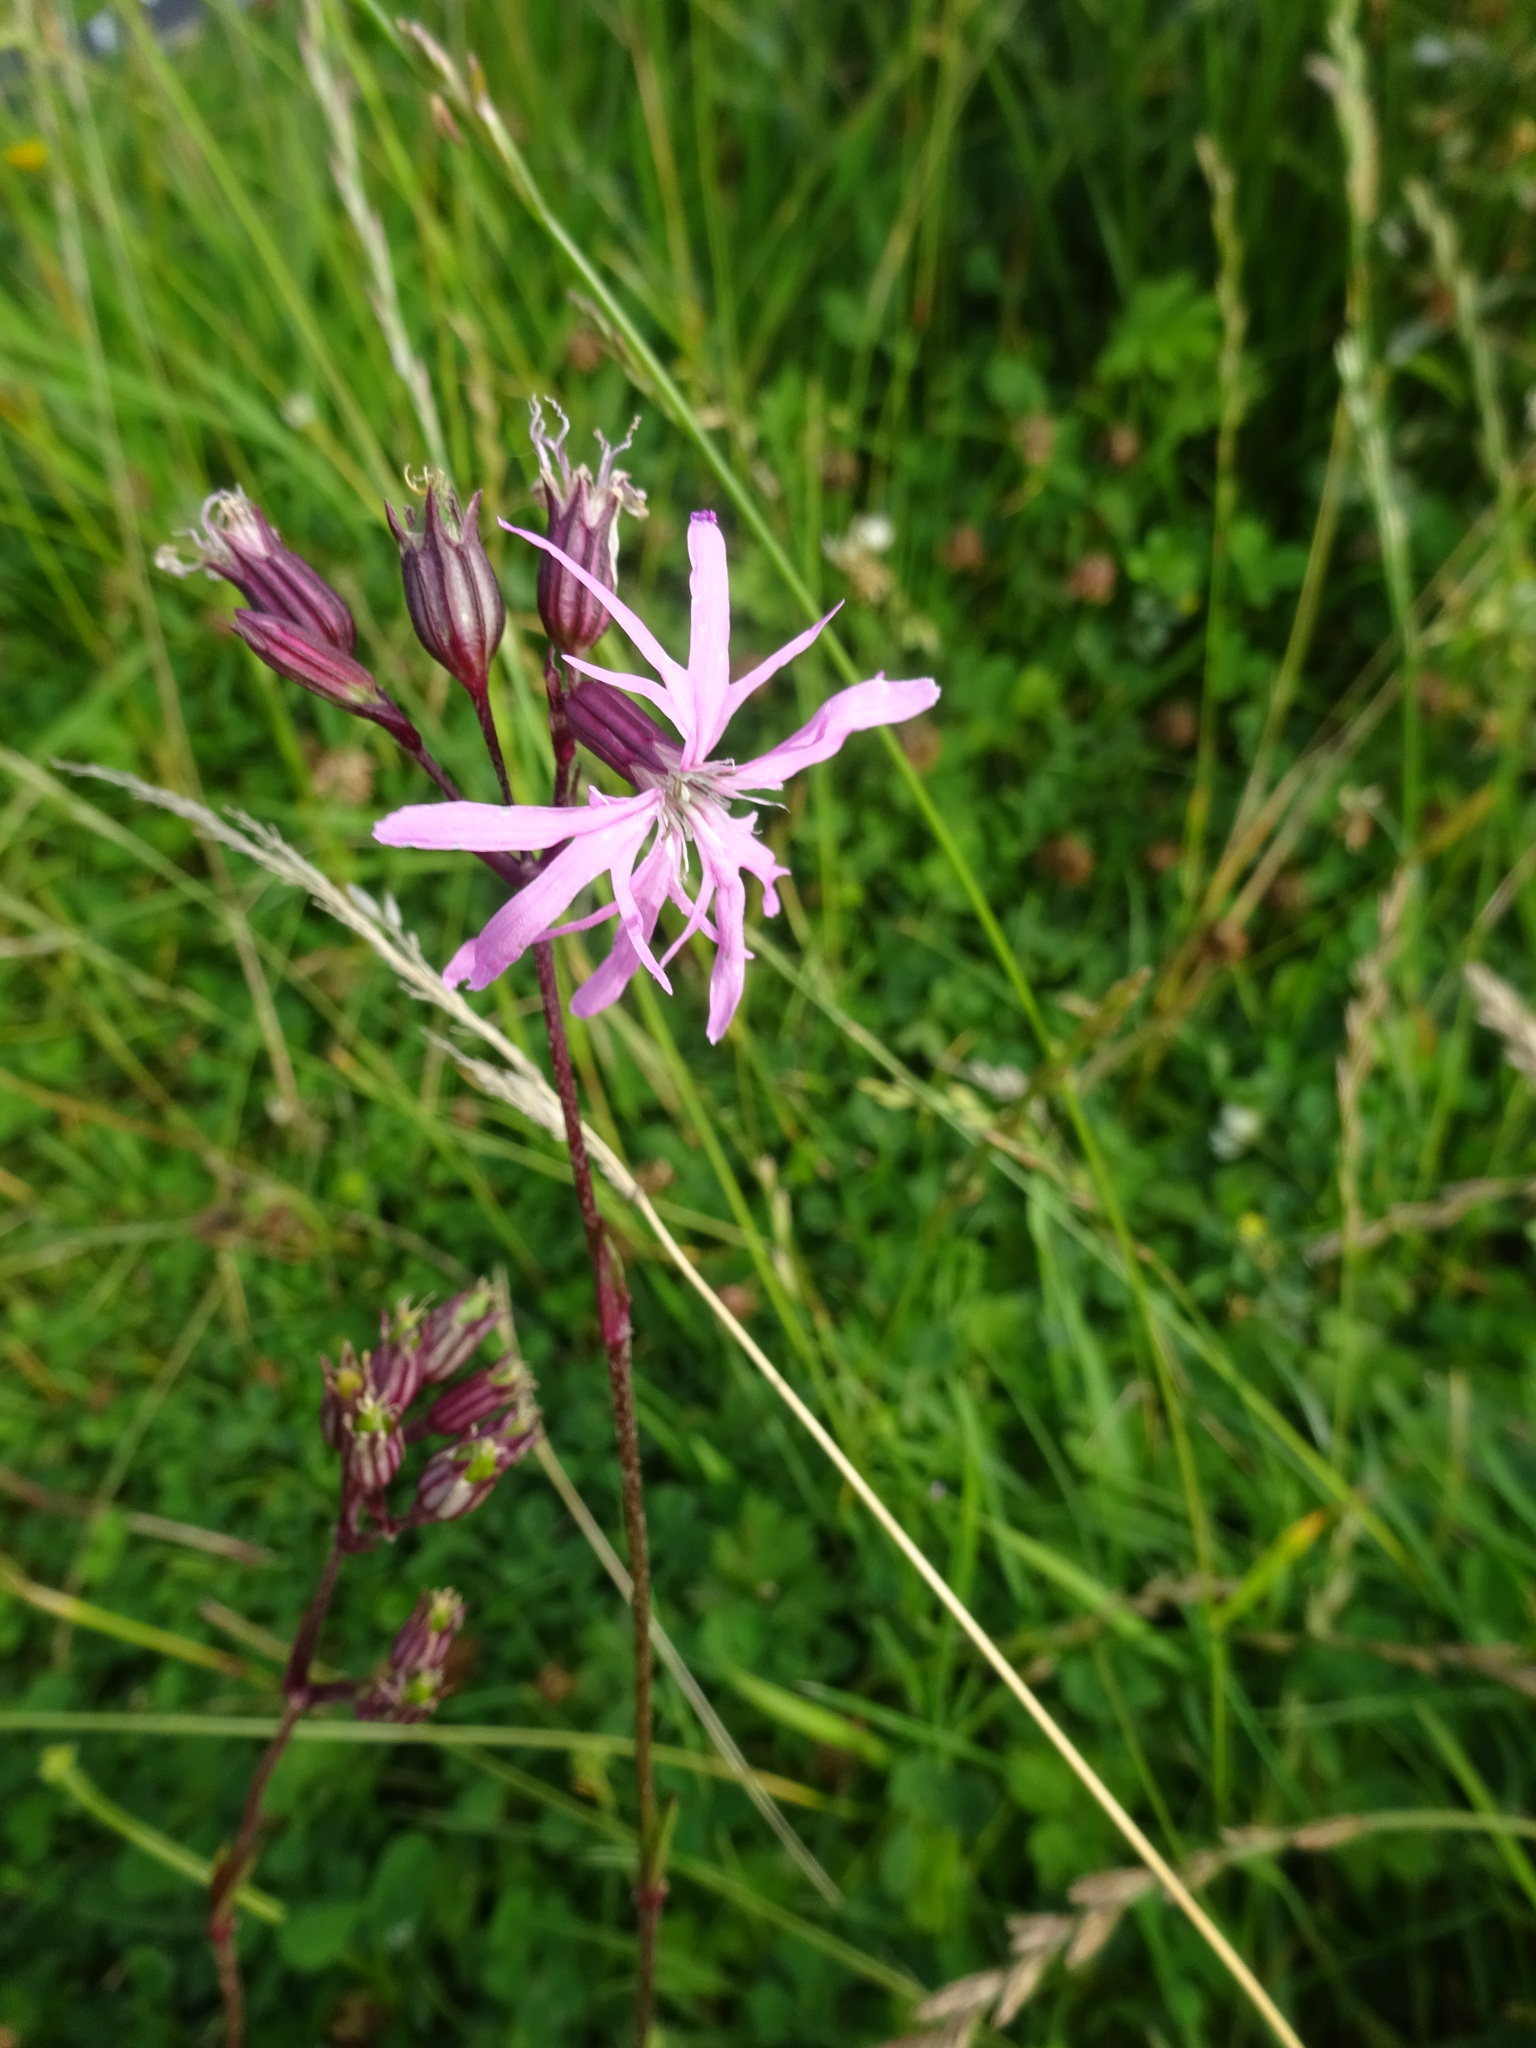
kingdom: Plantae
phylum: Tracheophyta
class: Magnoliopsida
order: Caryophyllales
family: Caryophyllaceae
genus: Silene
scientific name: Silene flos-cuculi
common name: Ragged-robin
